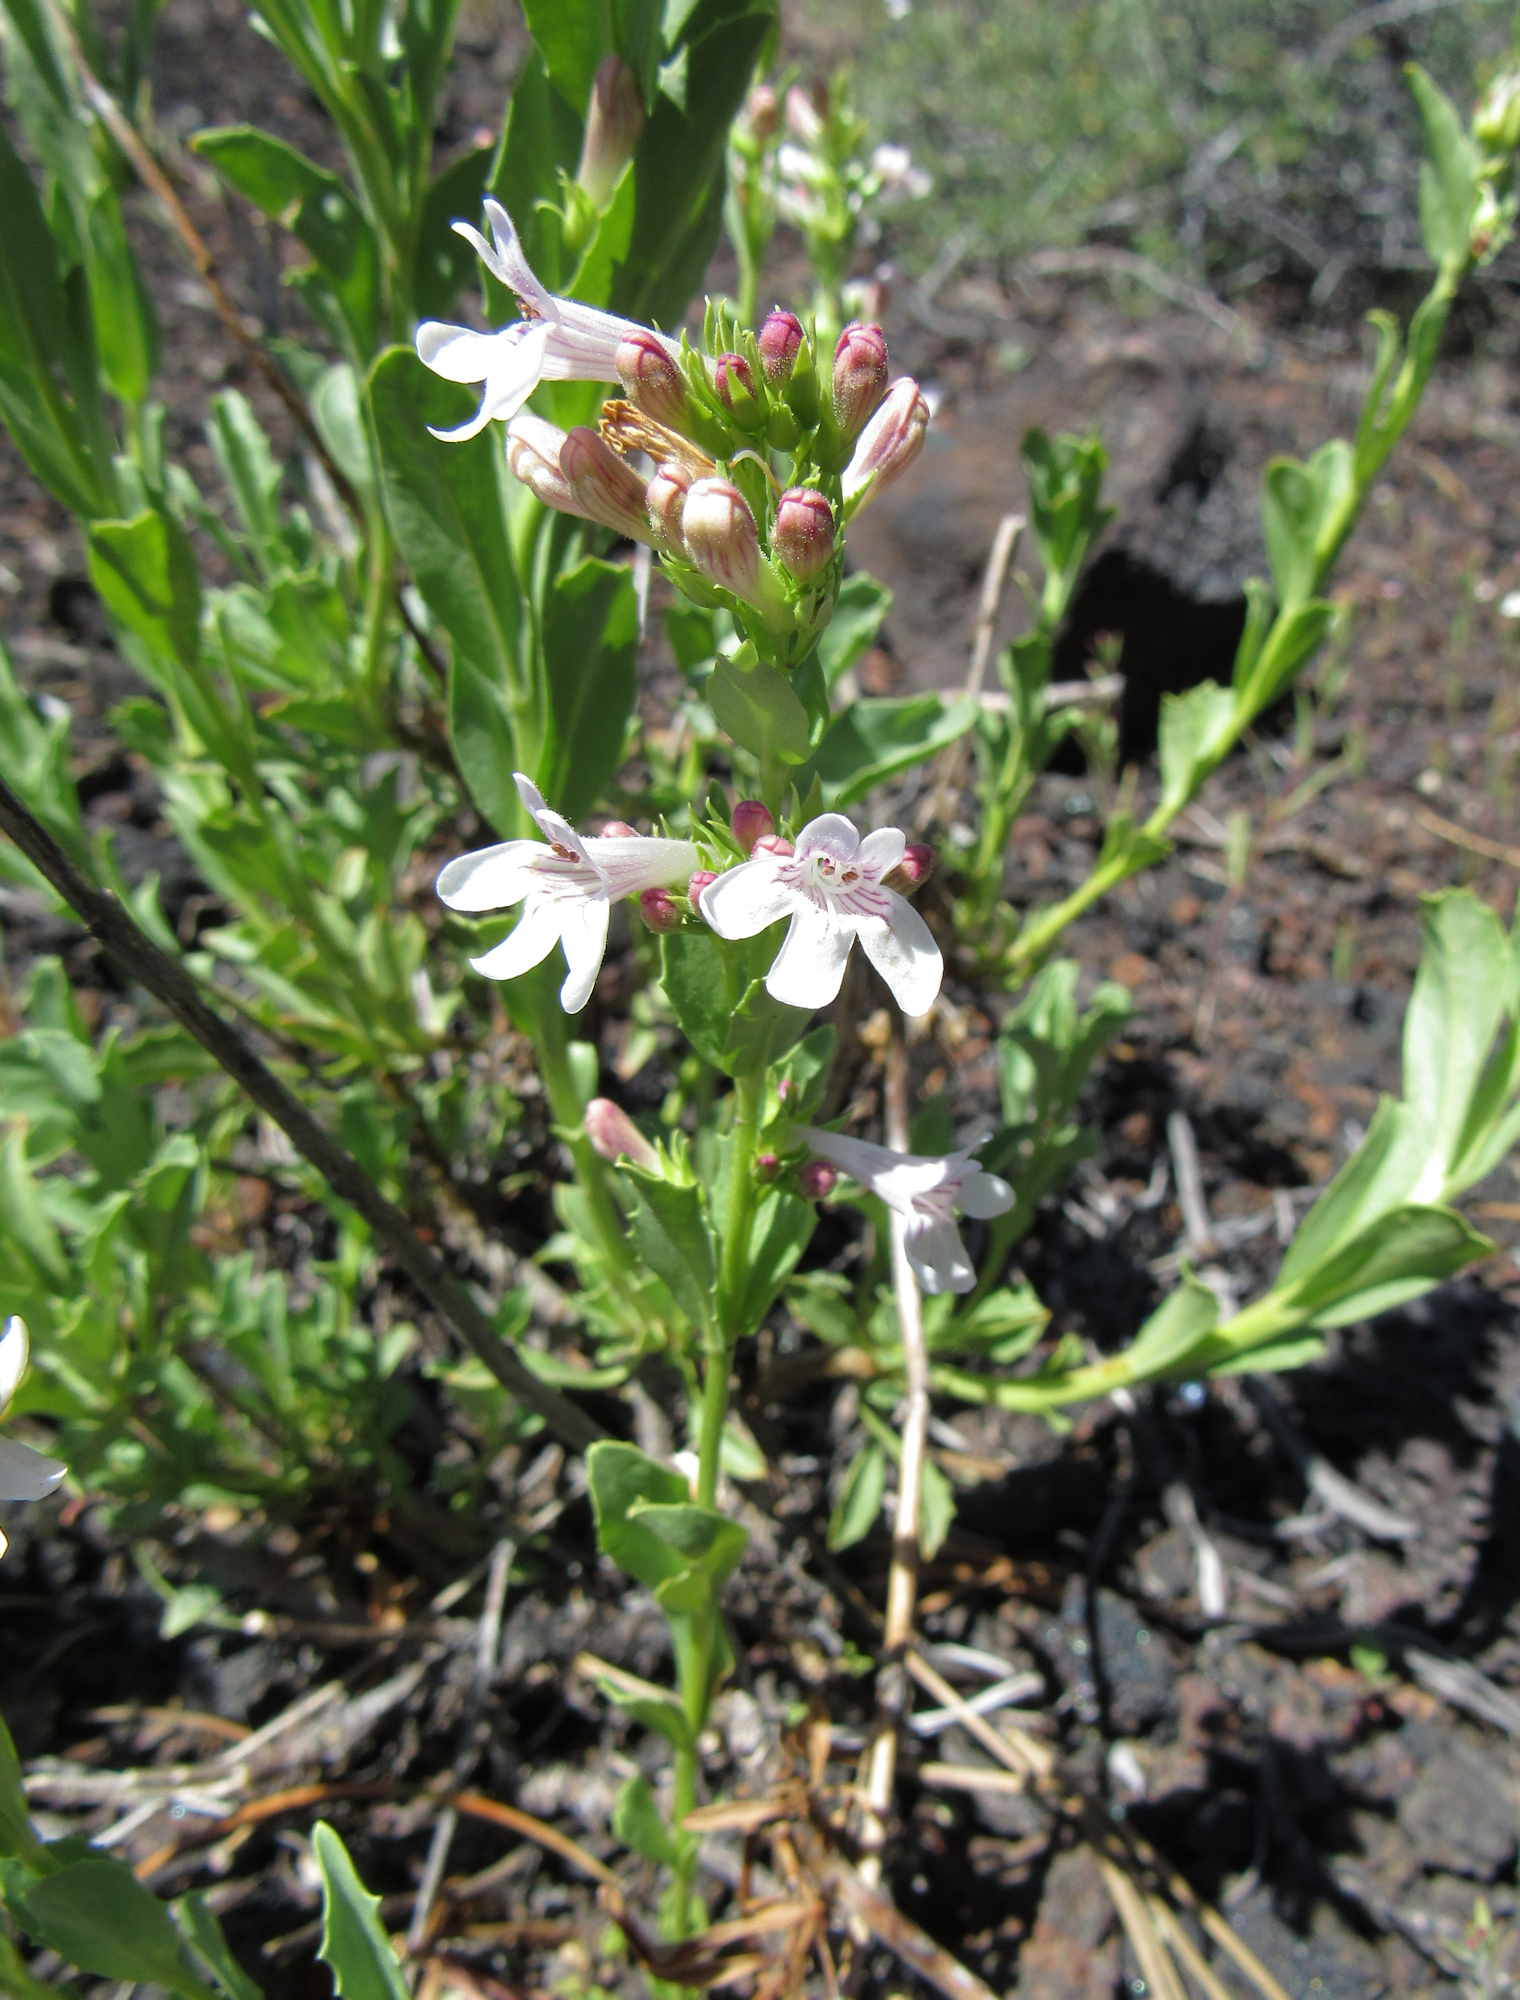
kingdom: Plantae
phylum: Tracheophyta
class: Magnoliopsida
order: Lamiales
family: Plantaginaceae
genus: Penstemon
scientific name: Penstemon deustus
